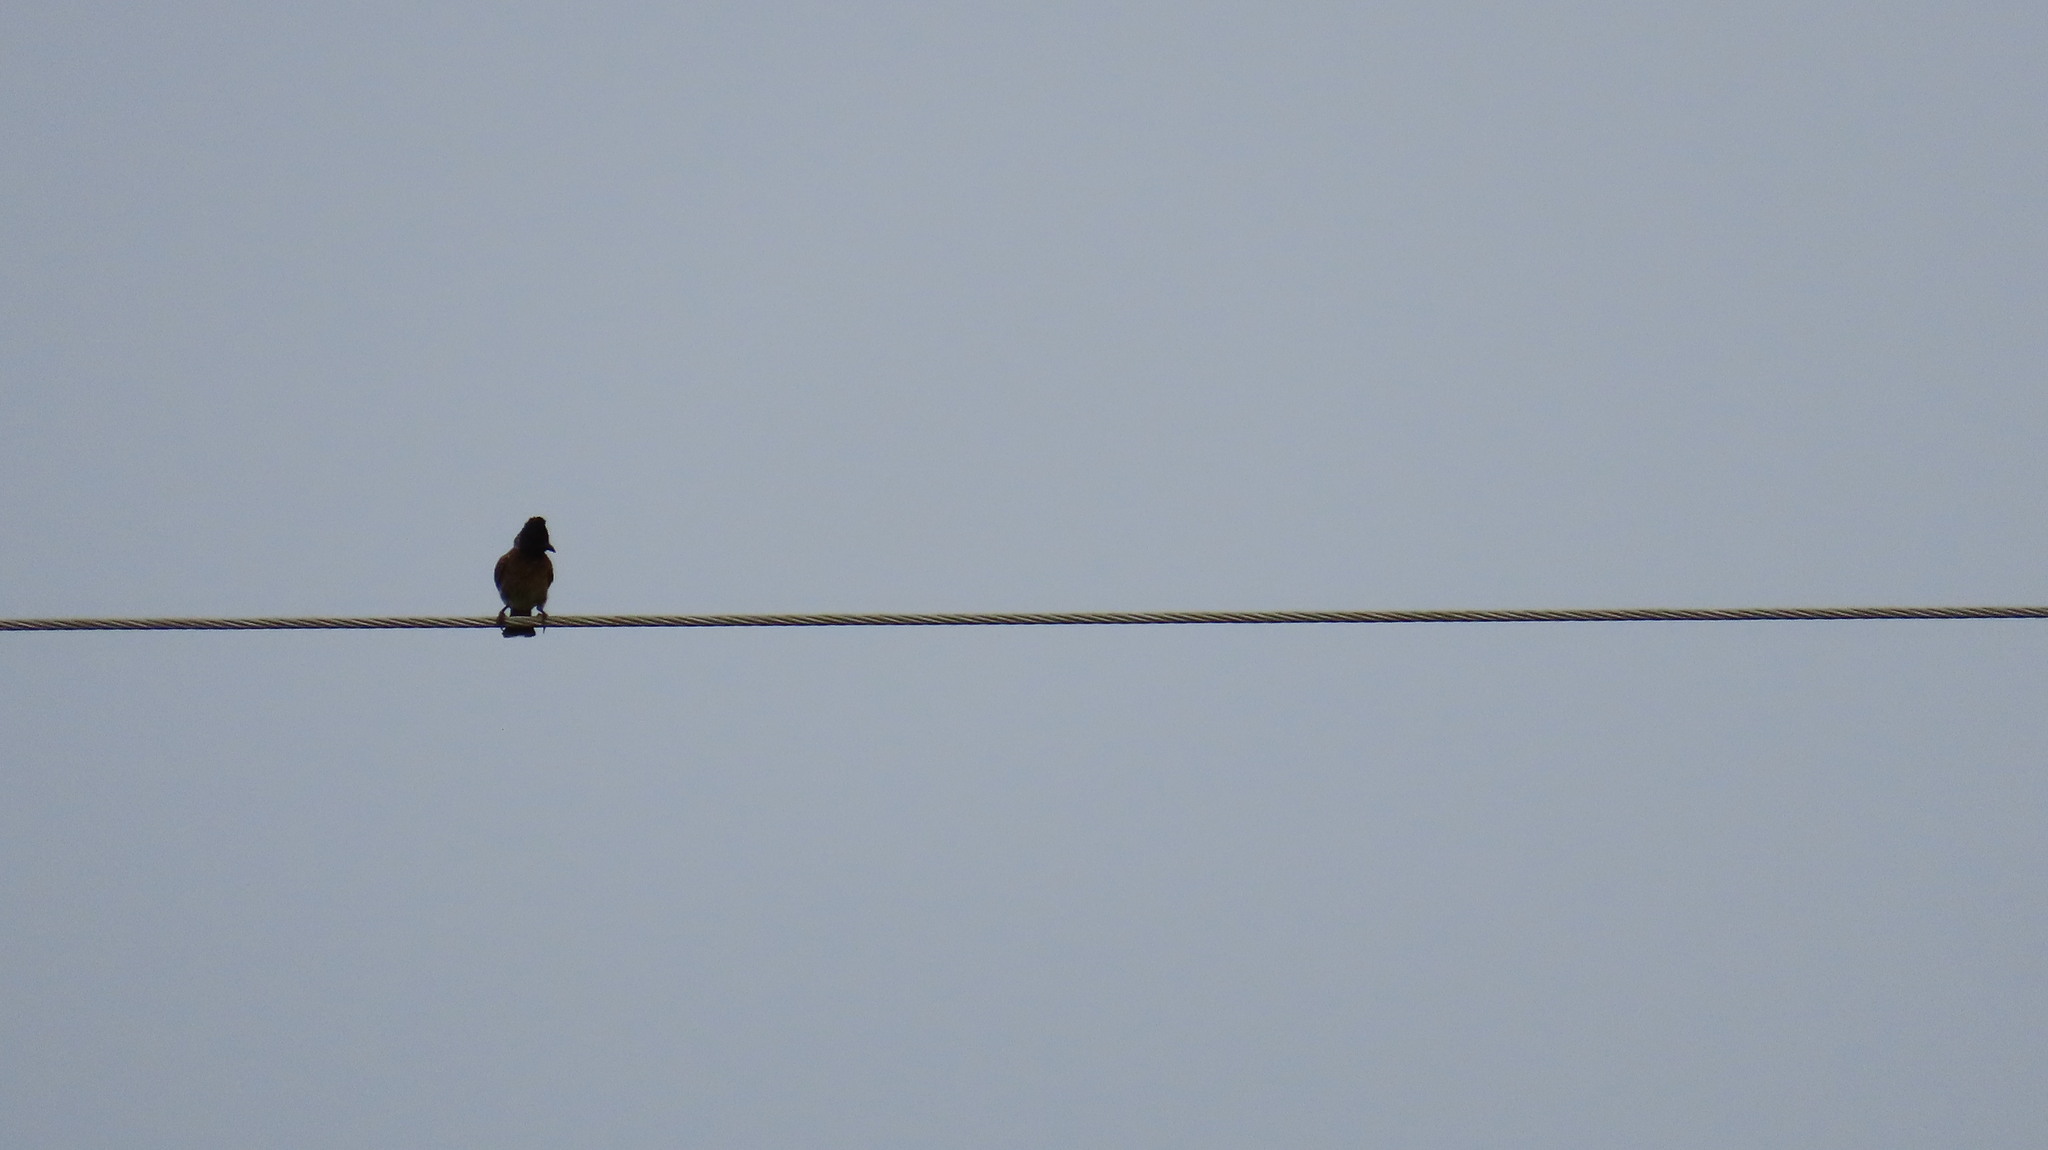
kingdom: Animalia
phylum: Chordata
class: Aves
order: Passeriformes
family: Pycnonotidae
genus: Pycnonotus
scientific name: Pycnonotus cafer
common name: Red-vented bulbul
